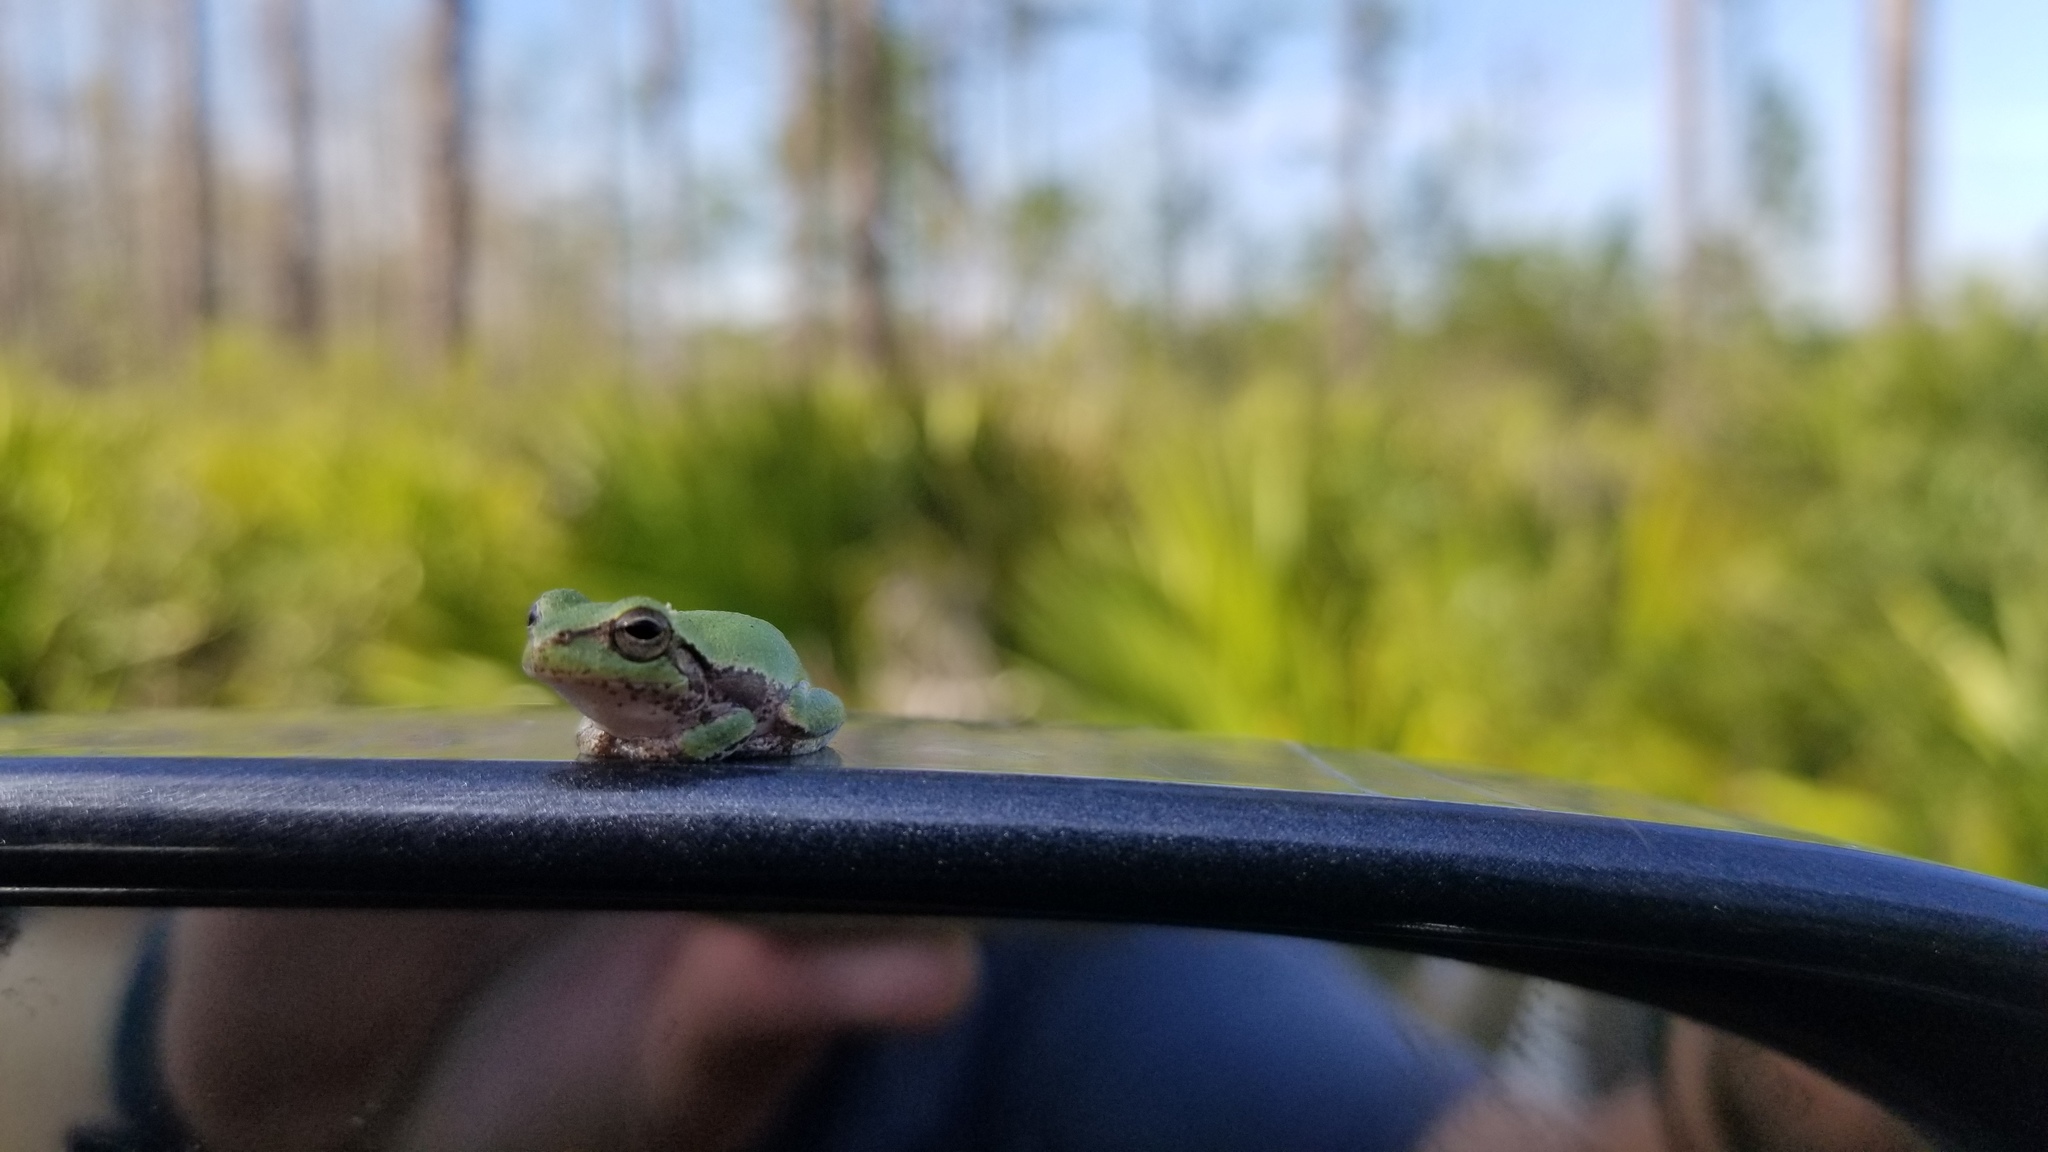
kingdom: Animalia
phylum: Chordata
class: Amphibia
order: Anura
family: Hylidae
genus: Hyla
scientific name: Hyla femoralis
